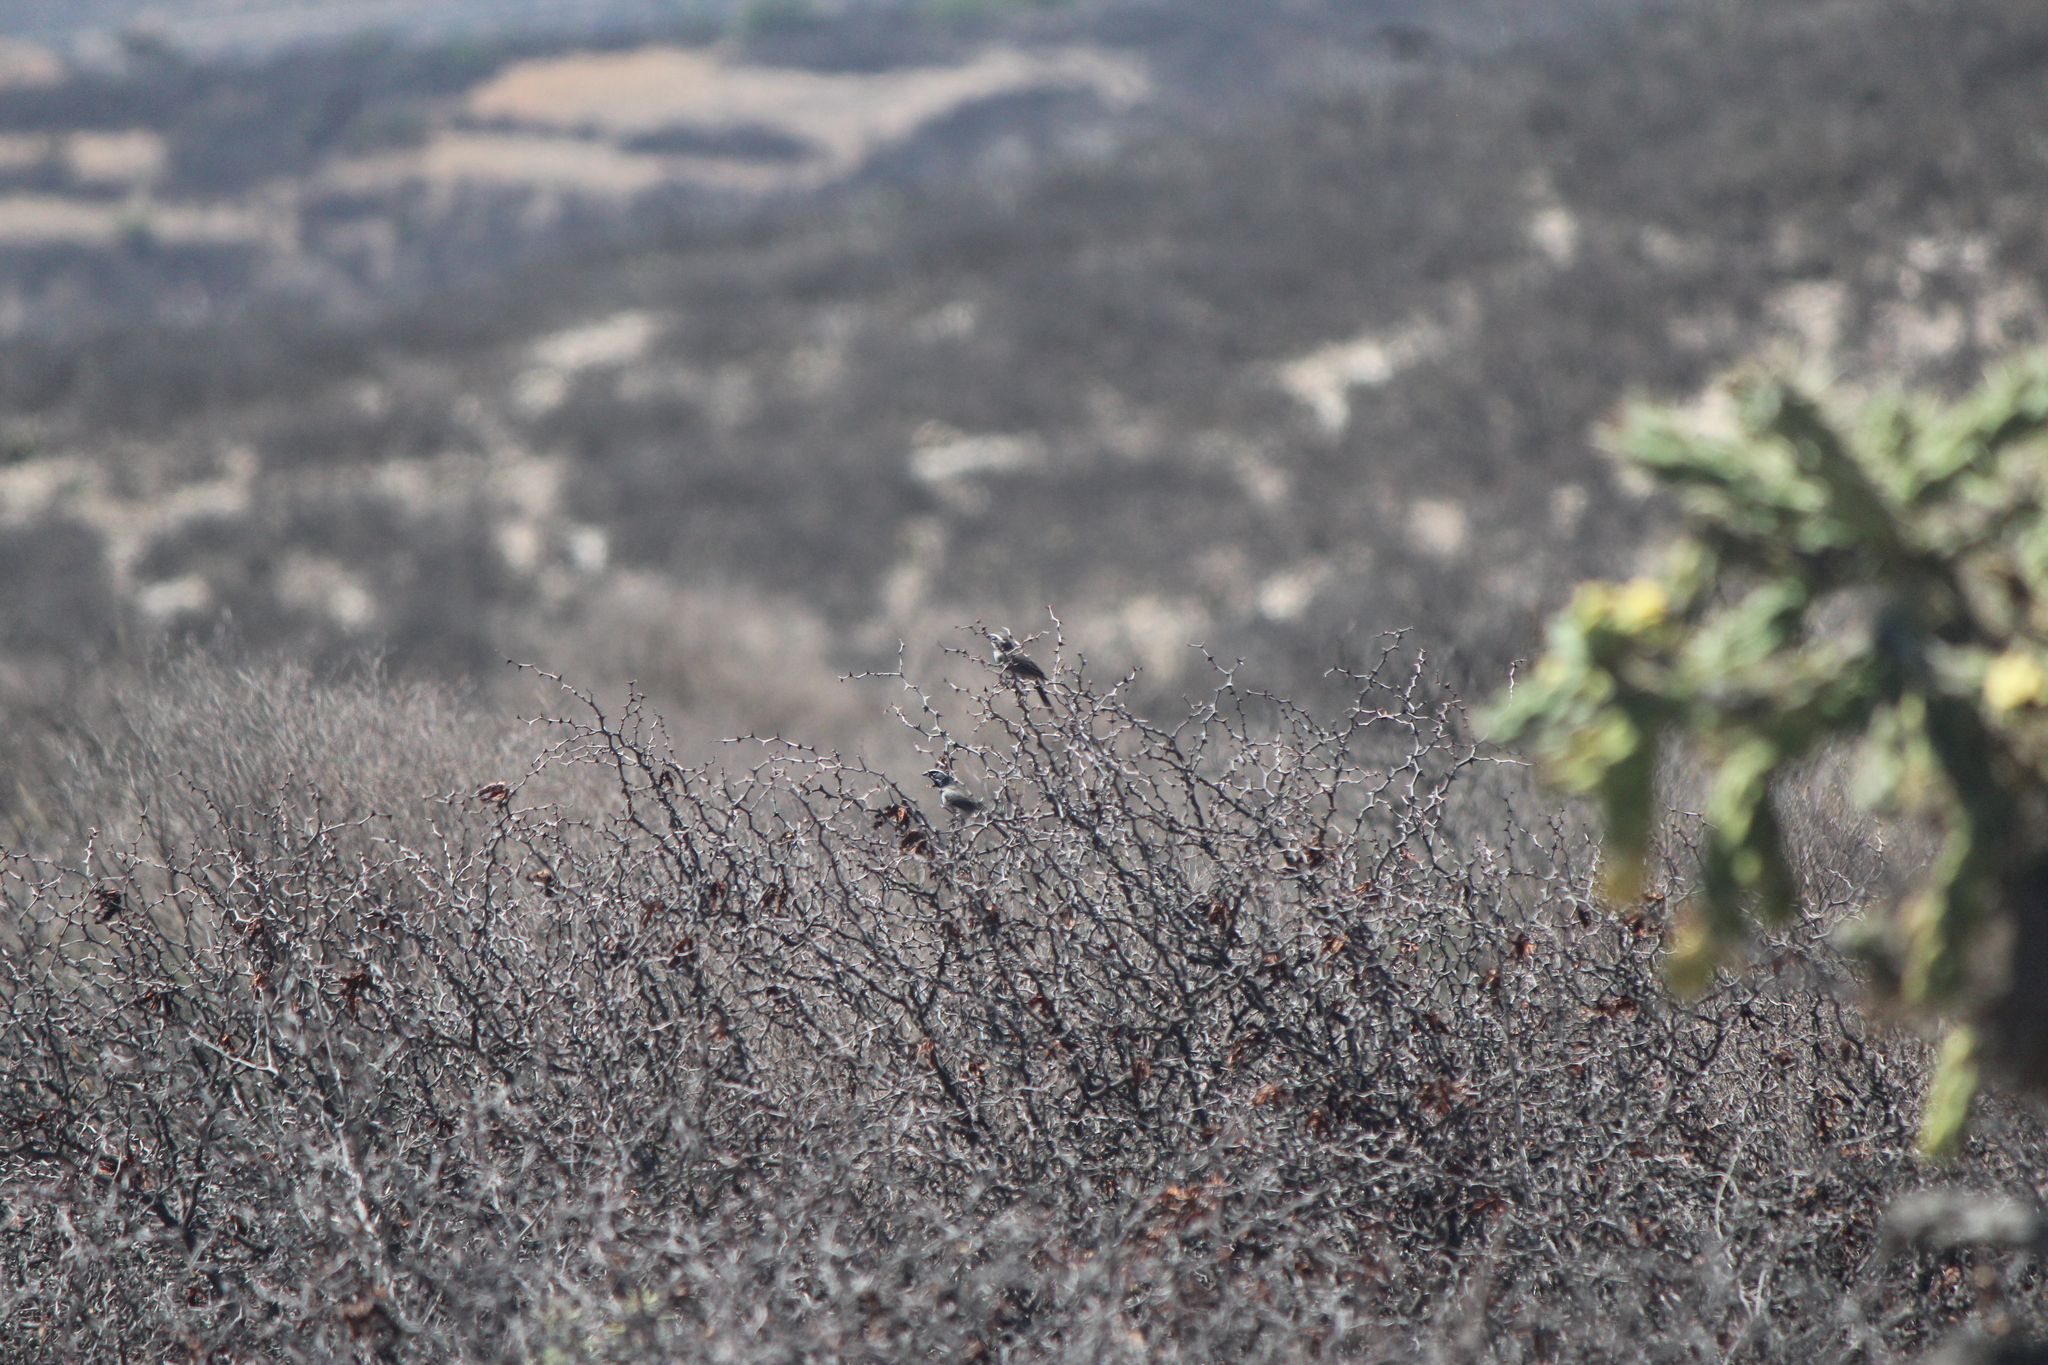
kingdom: Animalia
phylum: Chordata
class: Aves
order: Passeriformes
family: Passerellidae
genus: Amphispiza
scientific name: Amphispiza bilineata
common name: Black-throated sparrow
